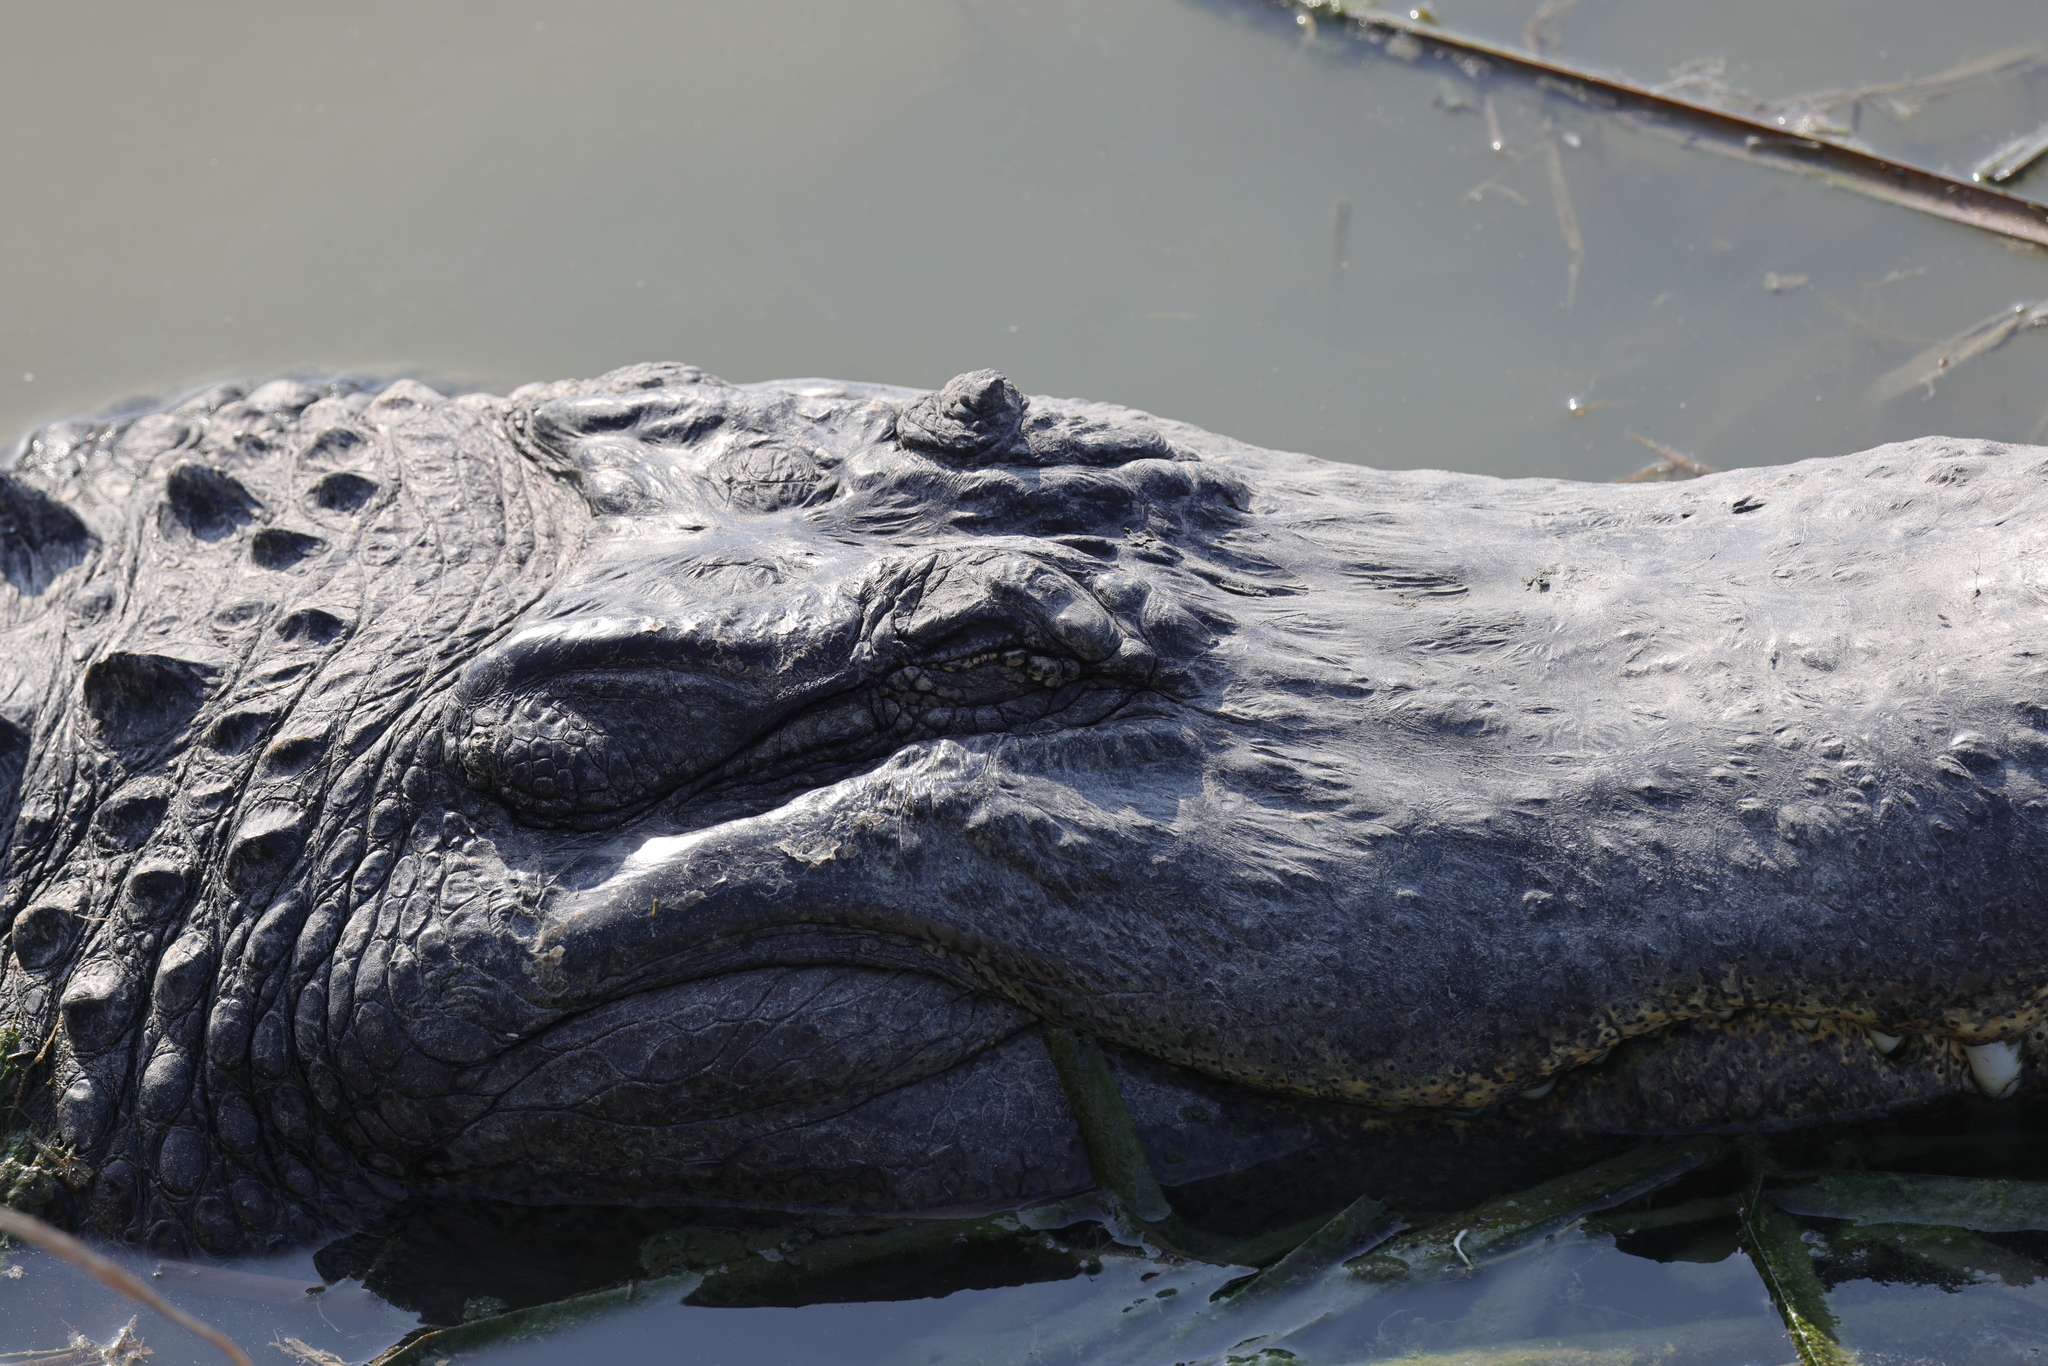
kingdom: Animalia
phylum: Chordata
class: Crocodylia
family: Alligatoridae
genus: Alligator
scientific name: Alligator mississippiensis
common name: American alligator
